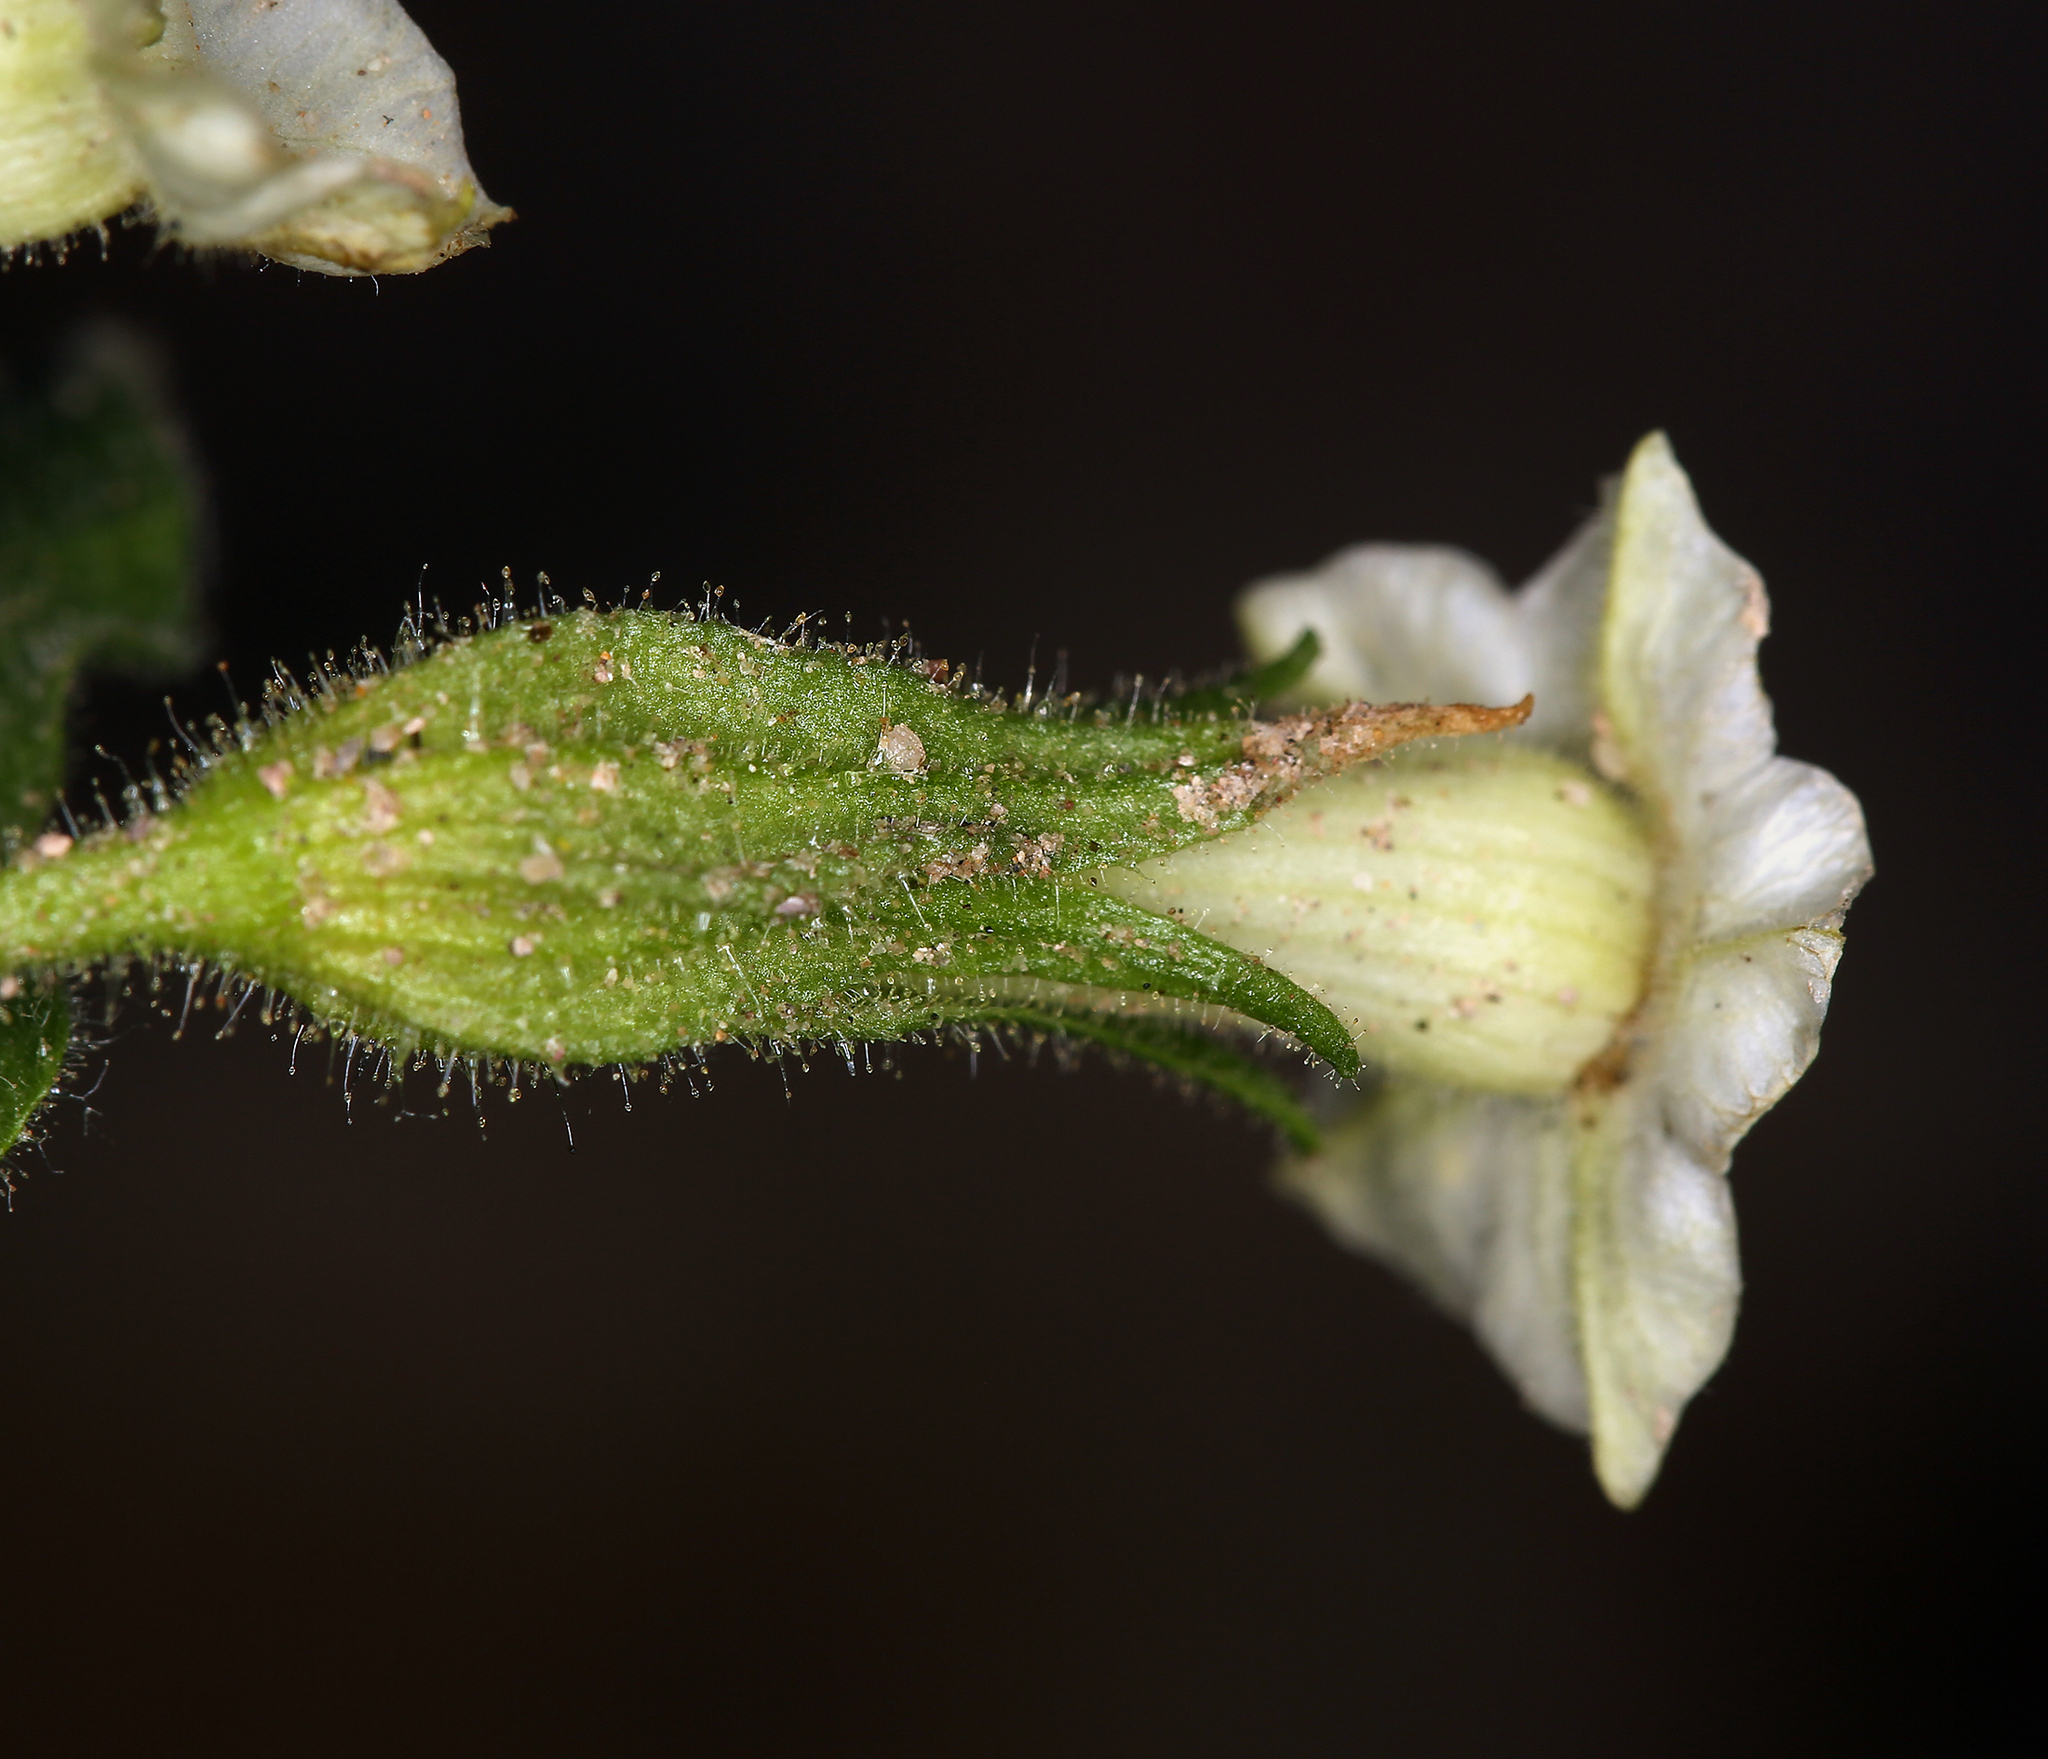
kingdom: Plantae
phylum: Tracheophyta
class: Magnoliopsida
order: Solanales
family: Solanaceae
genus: Nicotiana
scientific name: Nicotiana obtusifolia
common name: Desert tobacco
